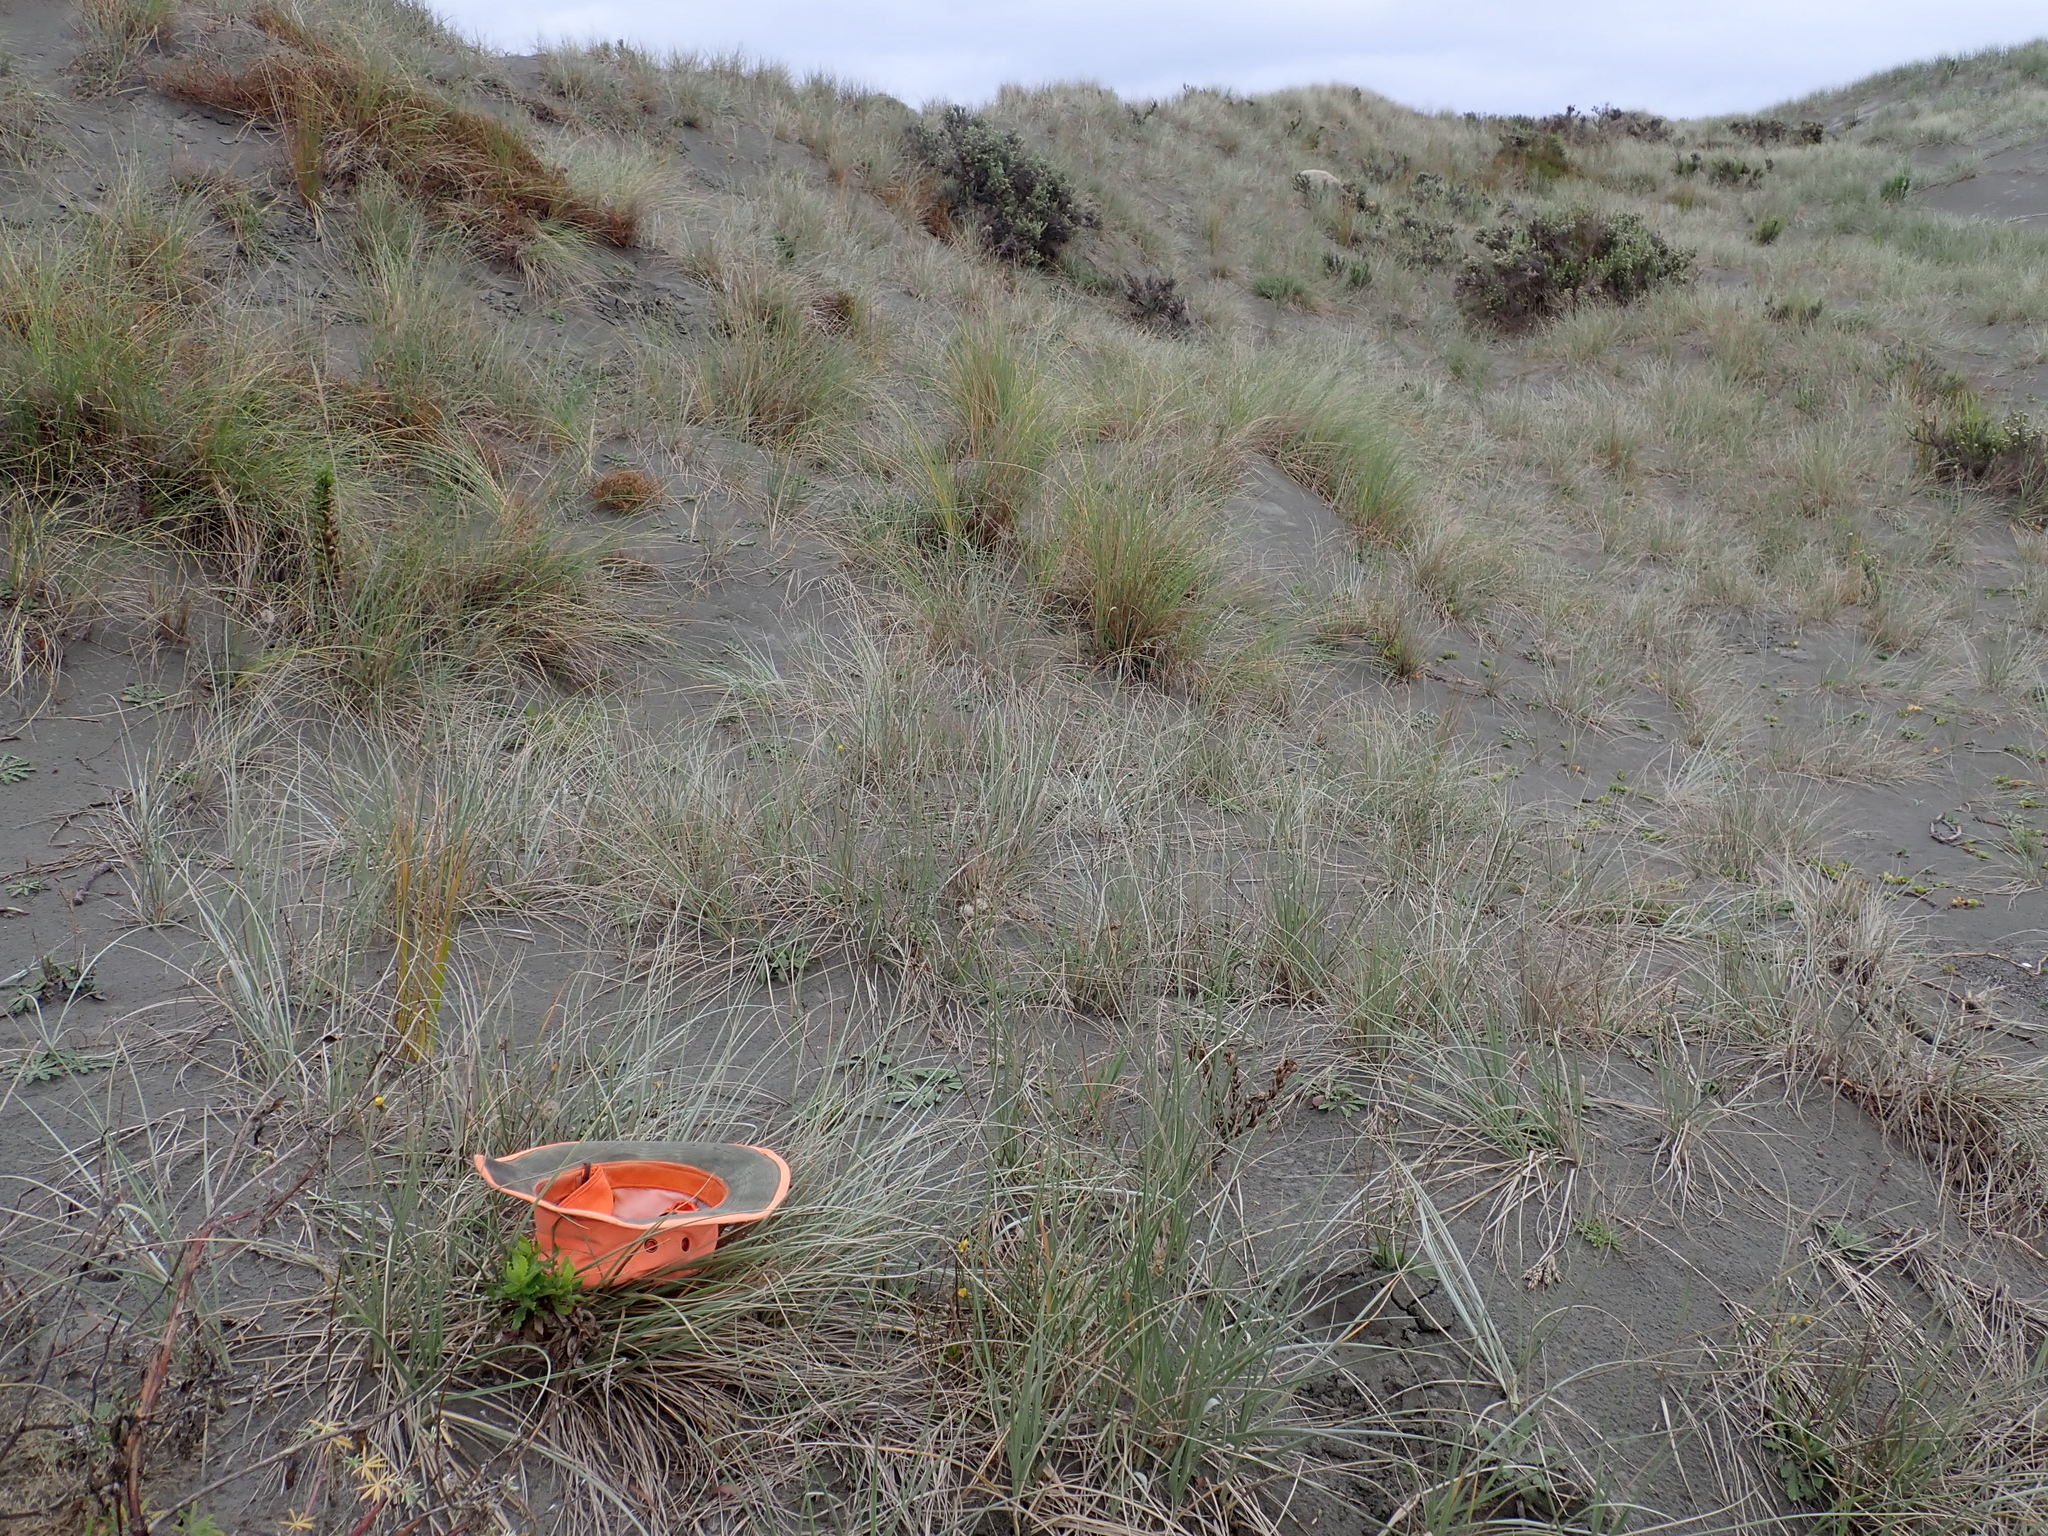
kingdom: Animalia
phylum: Arthropoda
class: Arachnida
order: Araneae
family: Theridiidae
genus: Latrodectus
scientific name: Latrodectus katipo
